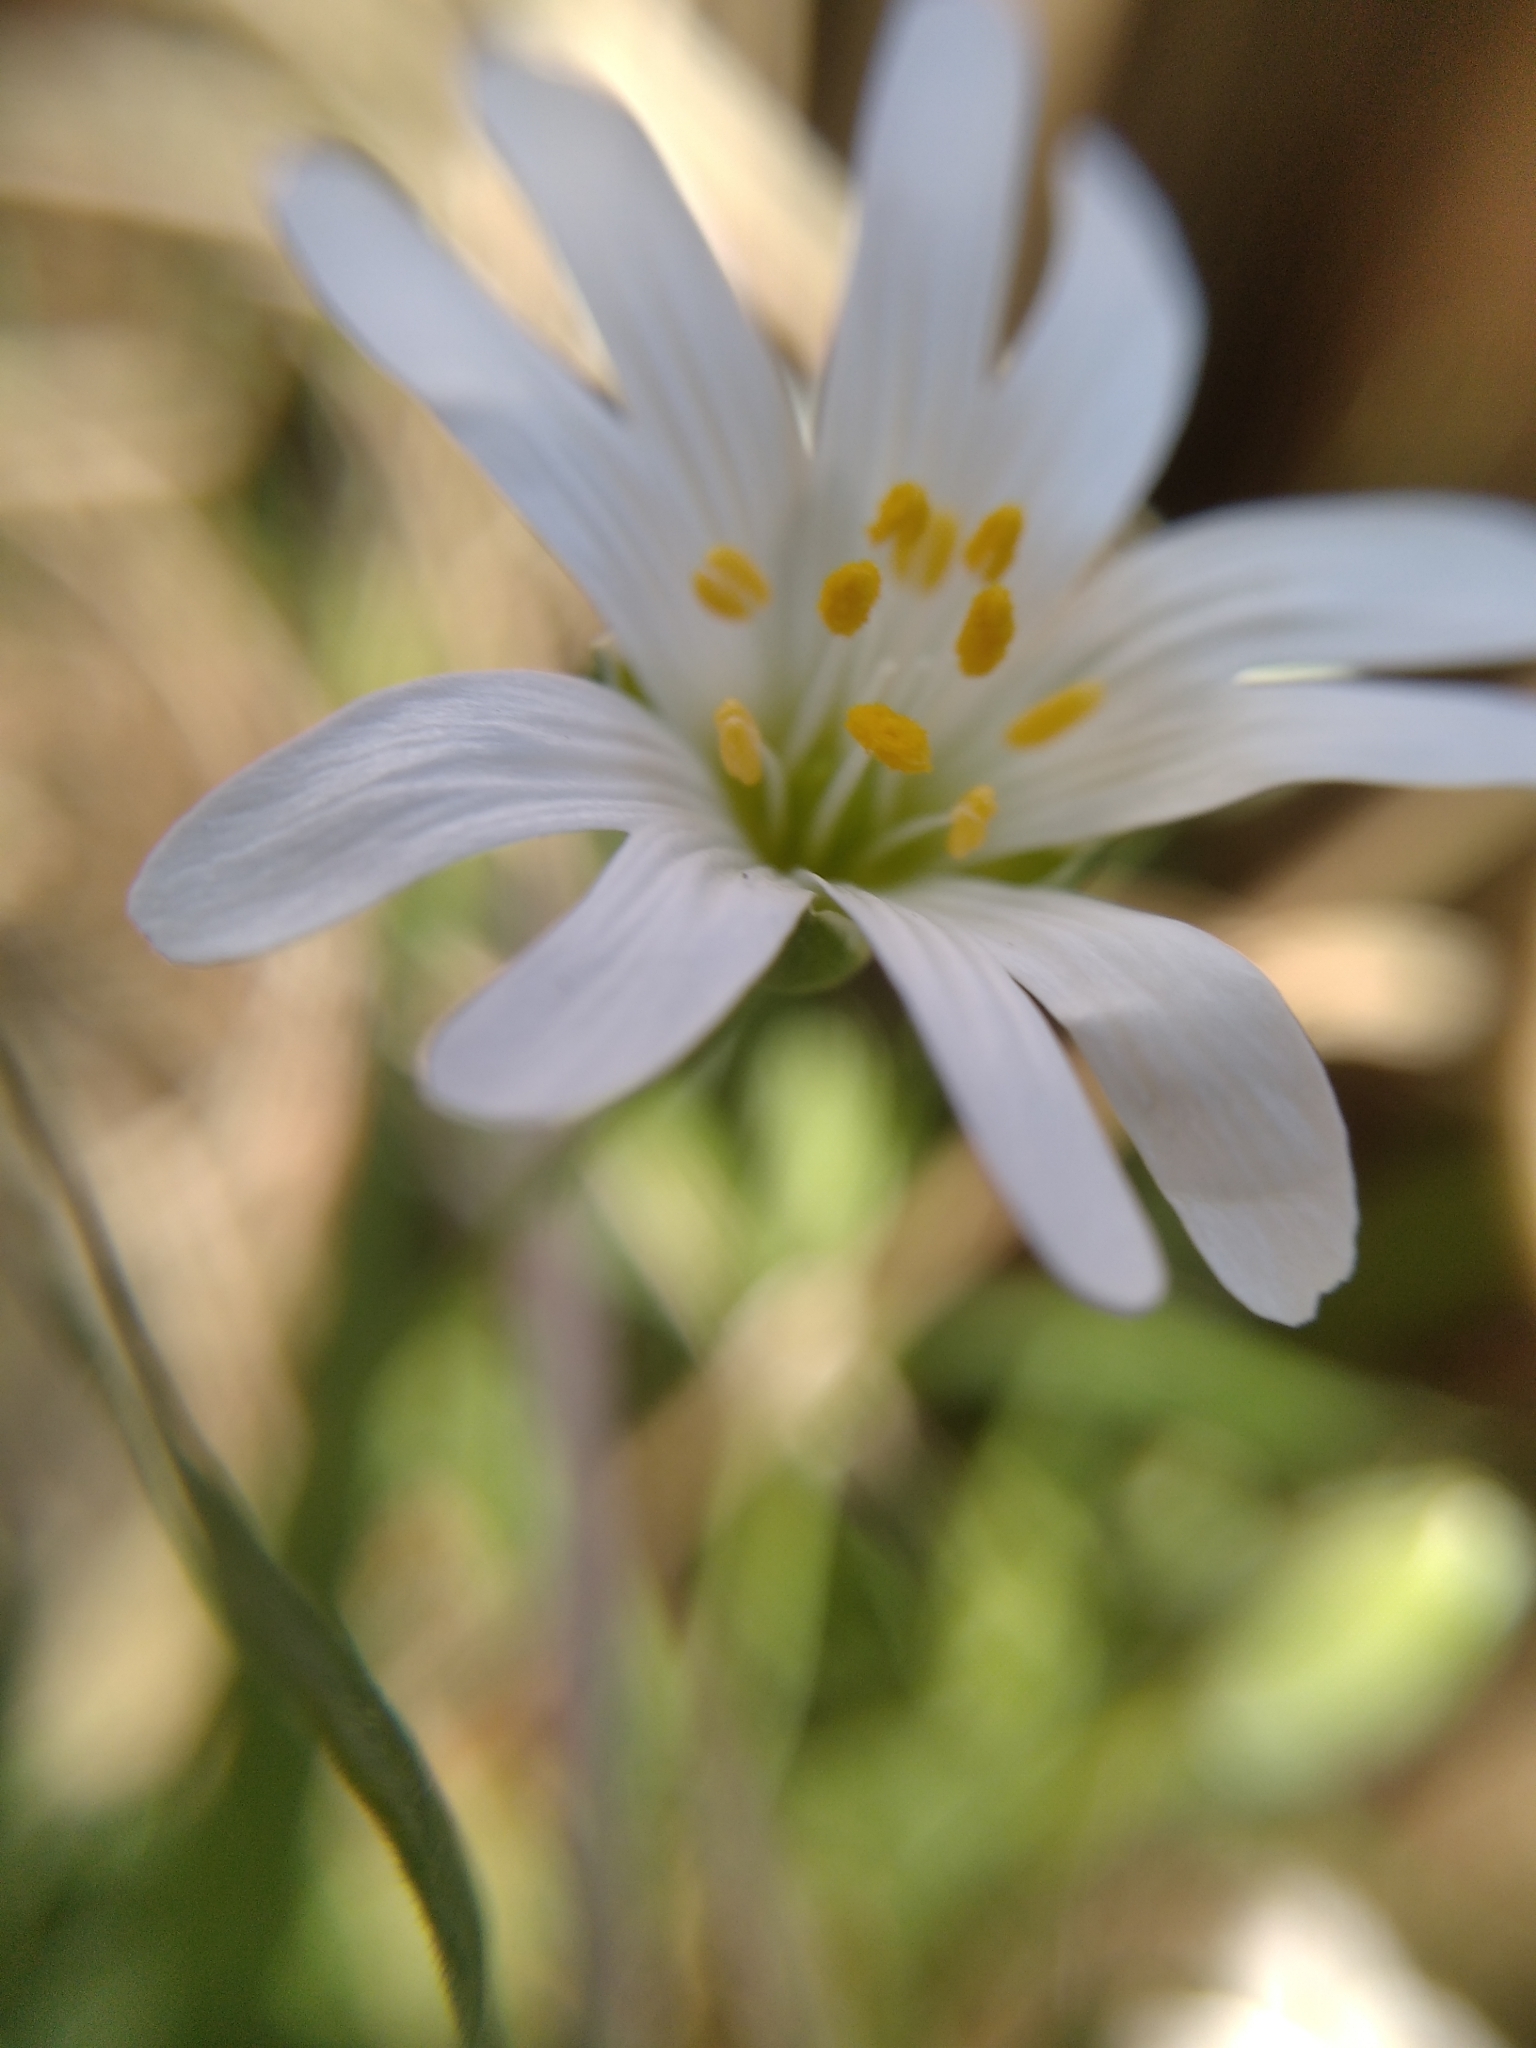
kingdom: Plantae
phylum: Tracheophyta
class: Magnoliopsida
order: Caryophyllales
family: Caryophyllaceae
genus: Rabelera
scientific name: Rabelera holostea
